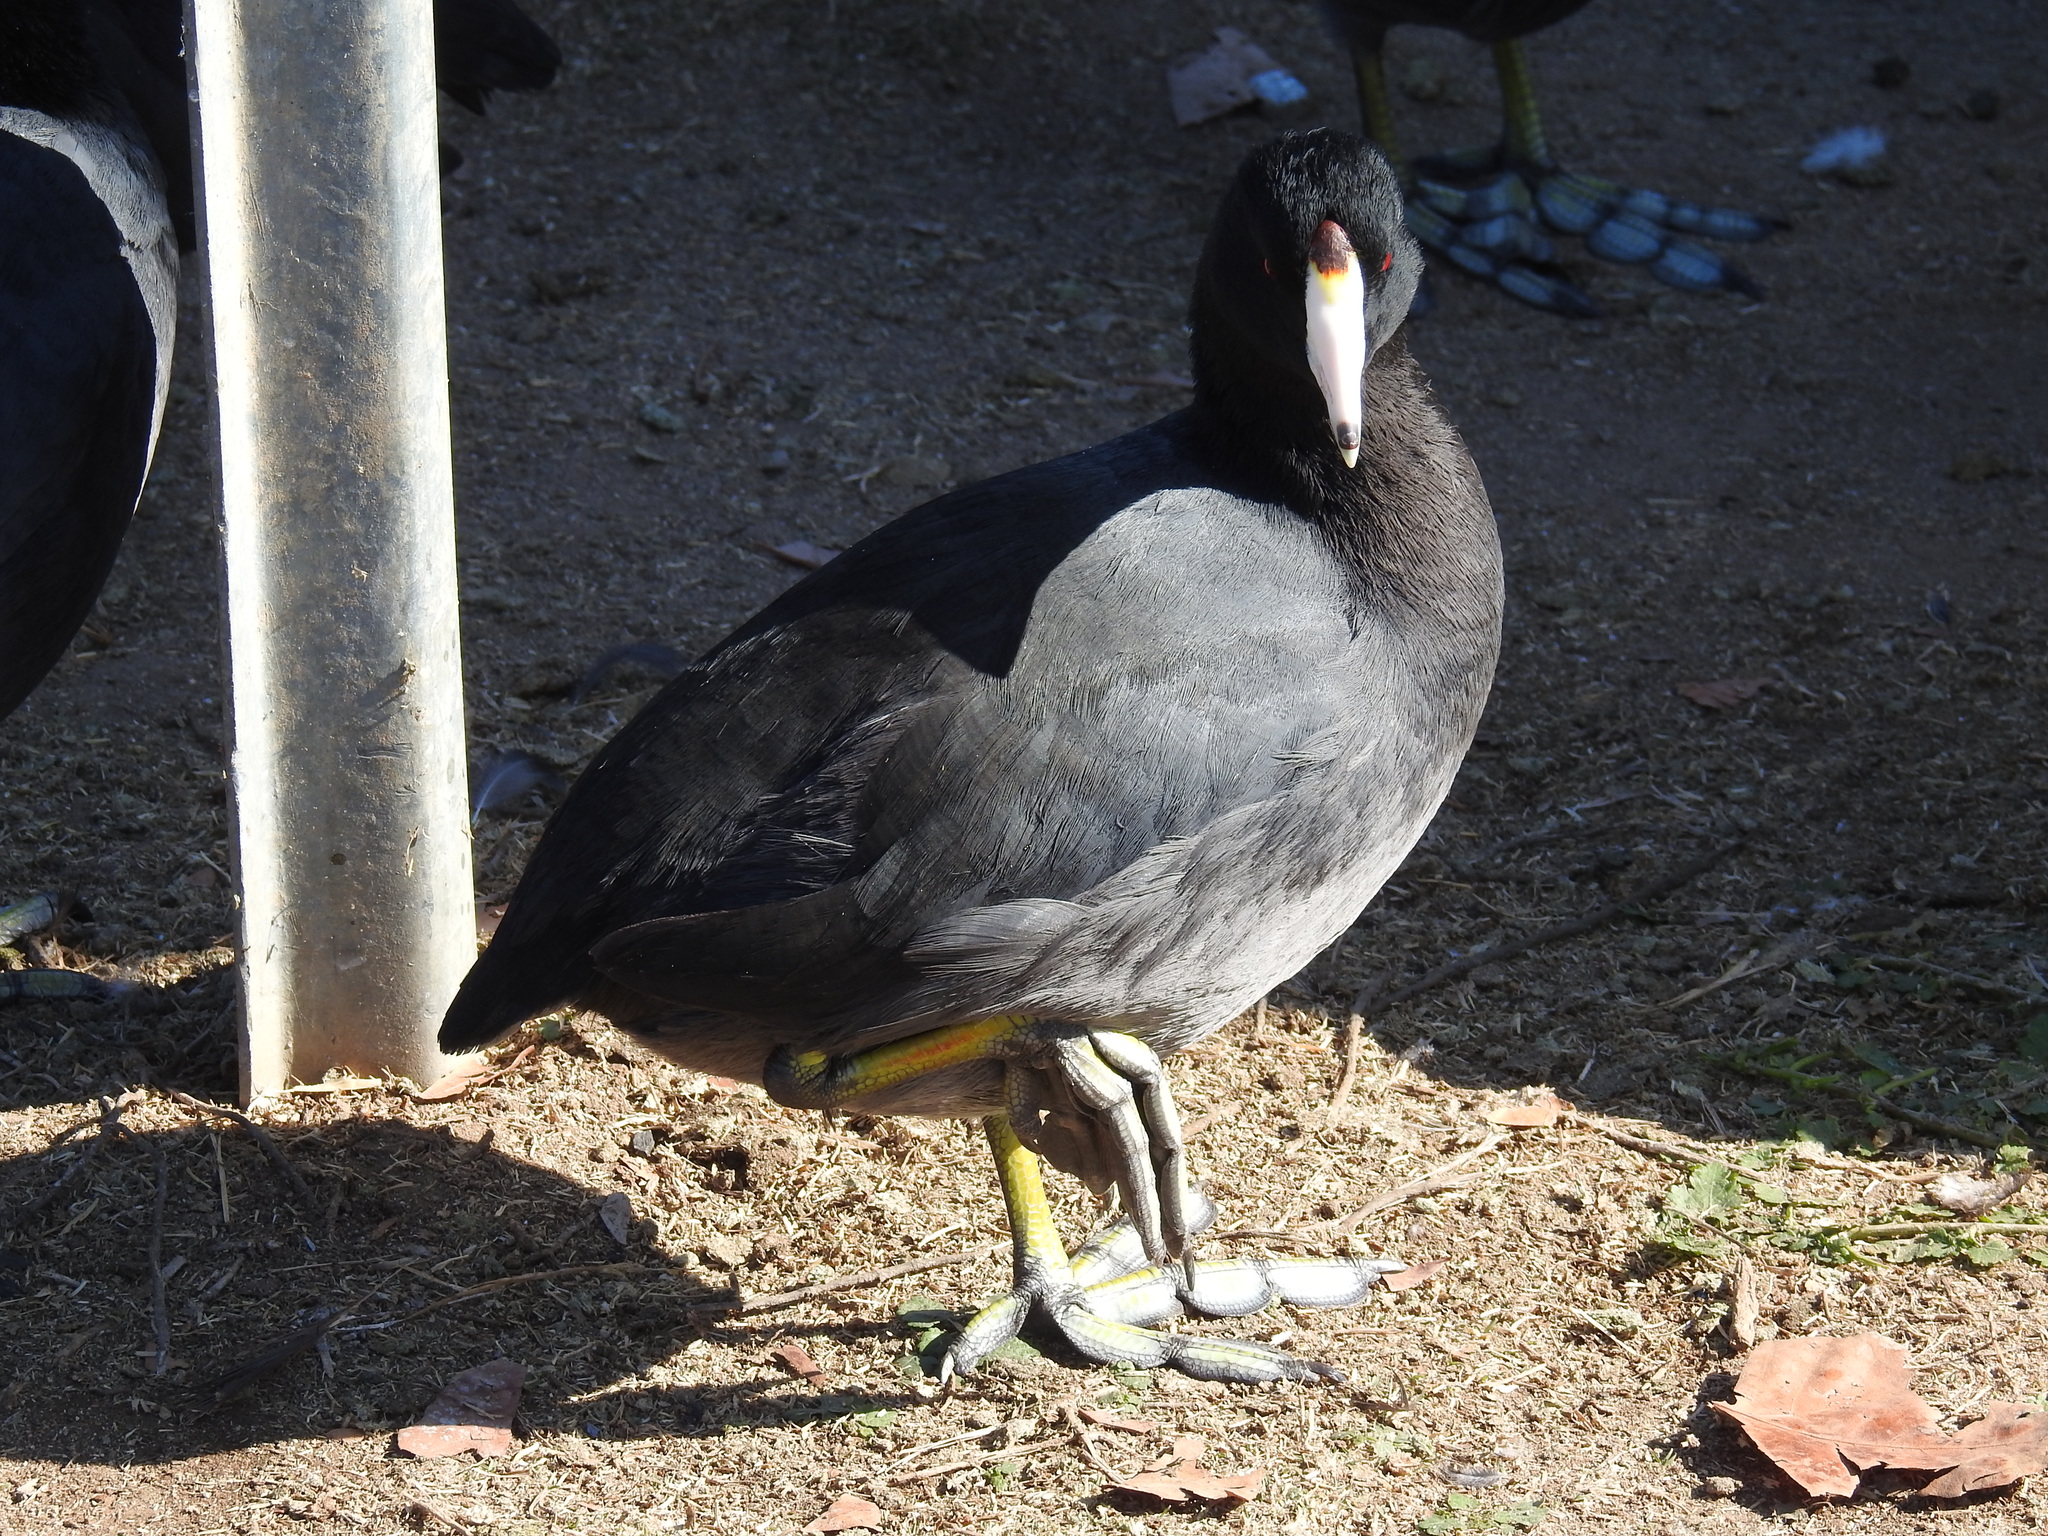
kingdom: Animalia
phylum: Chordata
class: Aves
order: Gruiformes
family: Rallidae
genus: Fulica
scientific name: Fulica americana
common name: American coot
